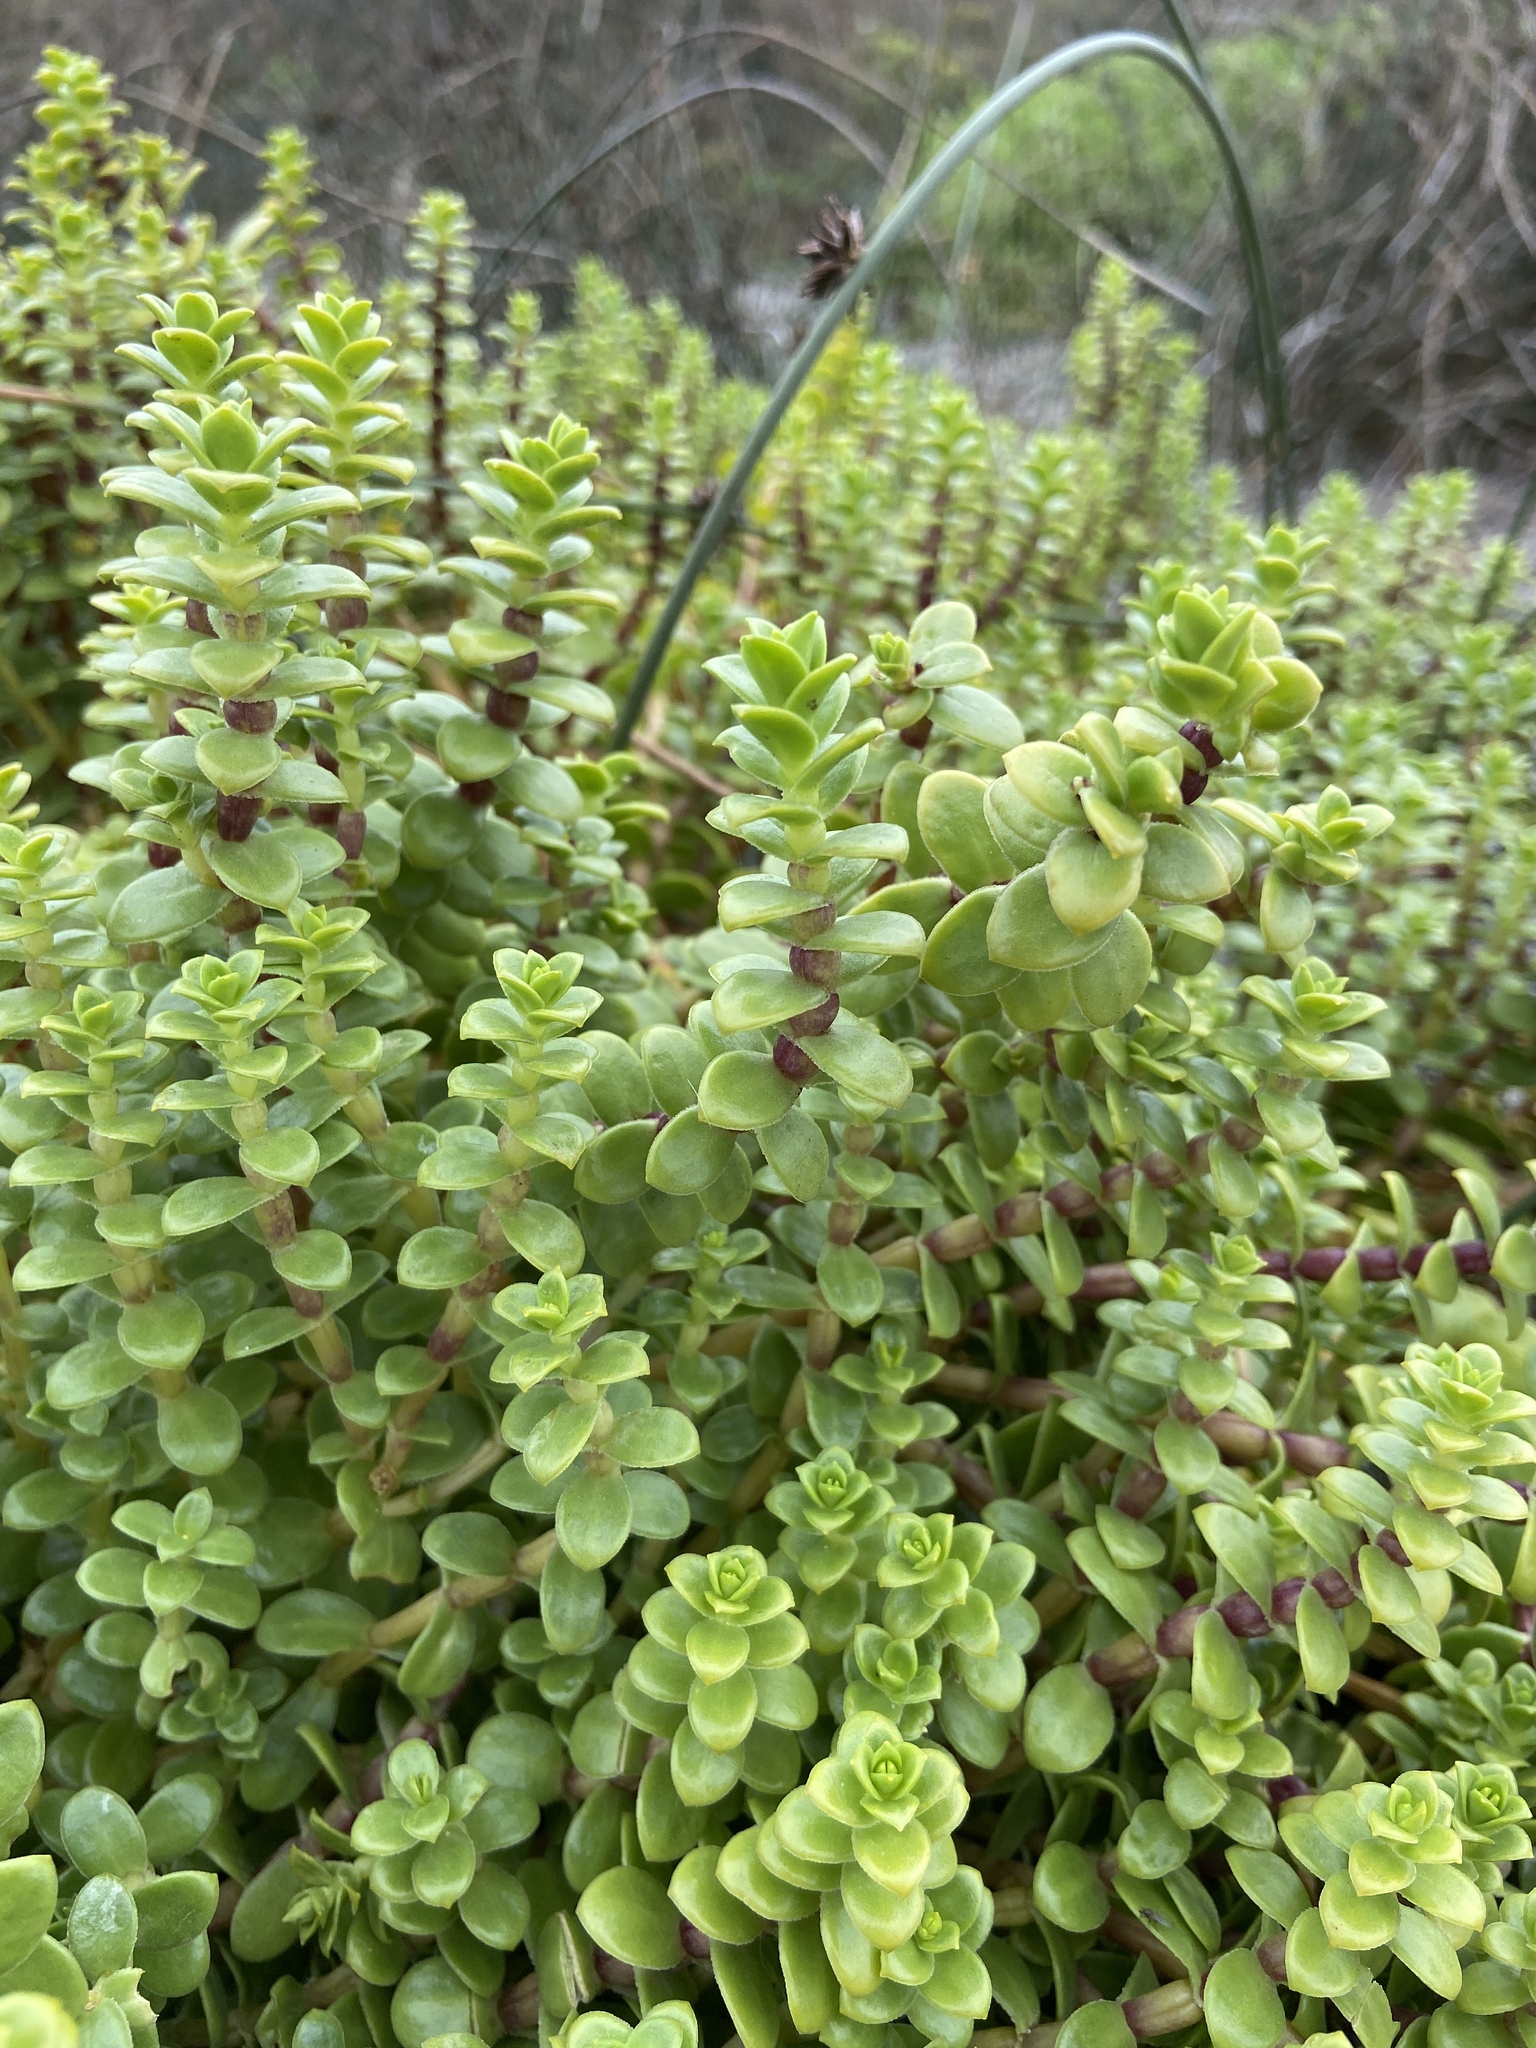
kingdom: Plantae
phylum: Tracheophyta
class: Magnoliopsida
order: Caryophyllales
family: Caryophyllaceae
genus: Honckenya
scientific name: Honckenya peploides
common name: Sea sandwort
